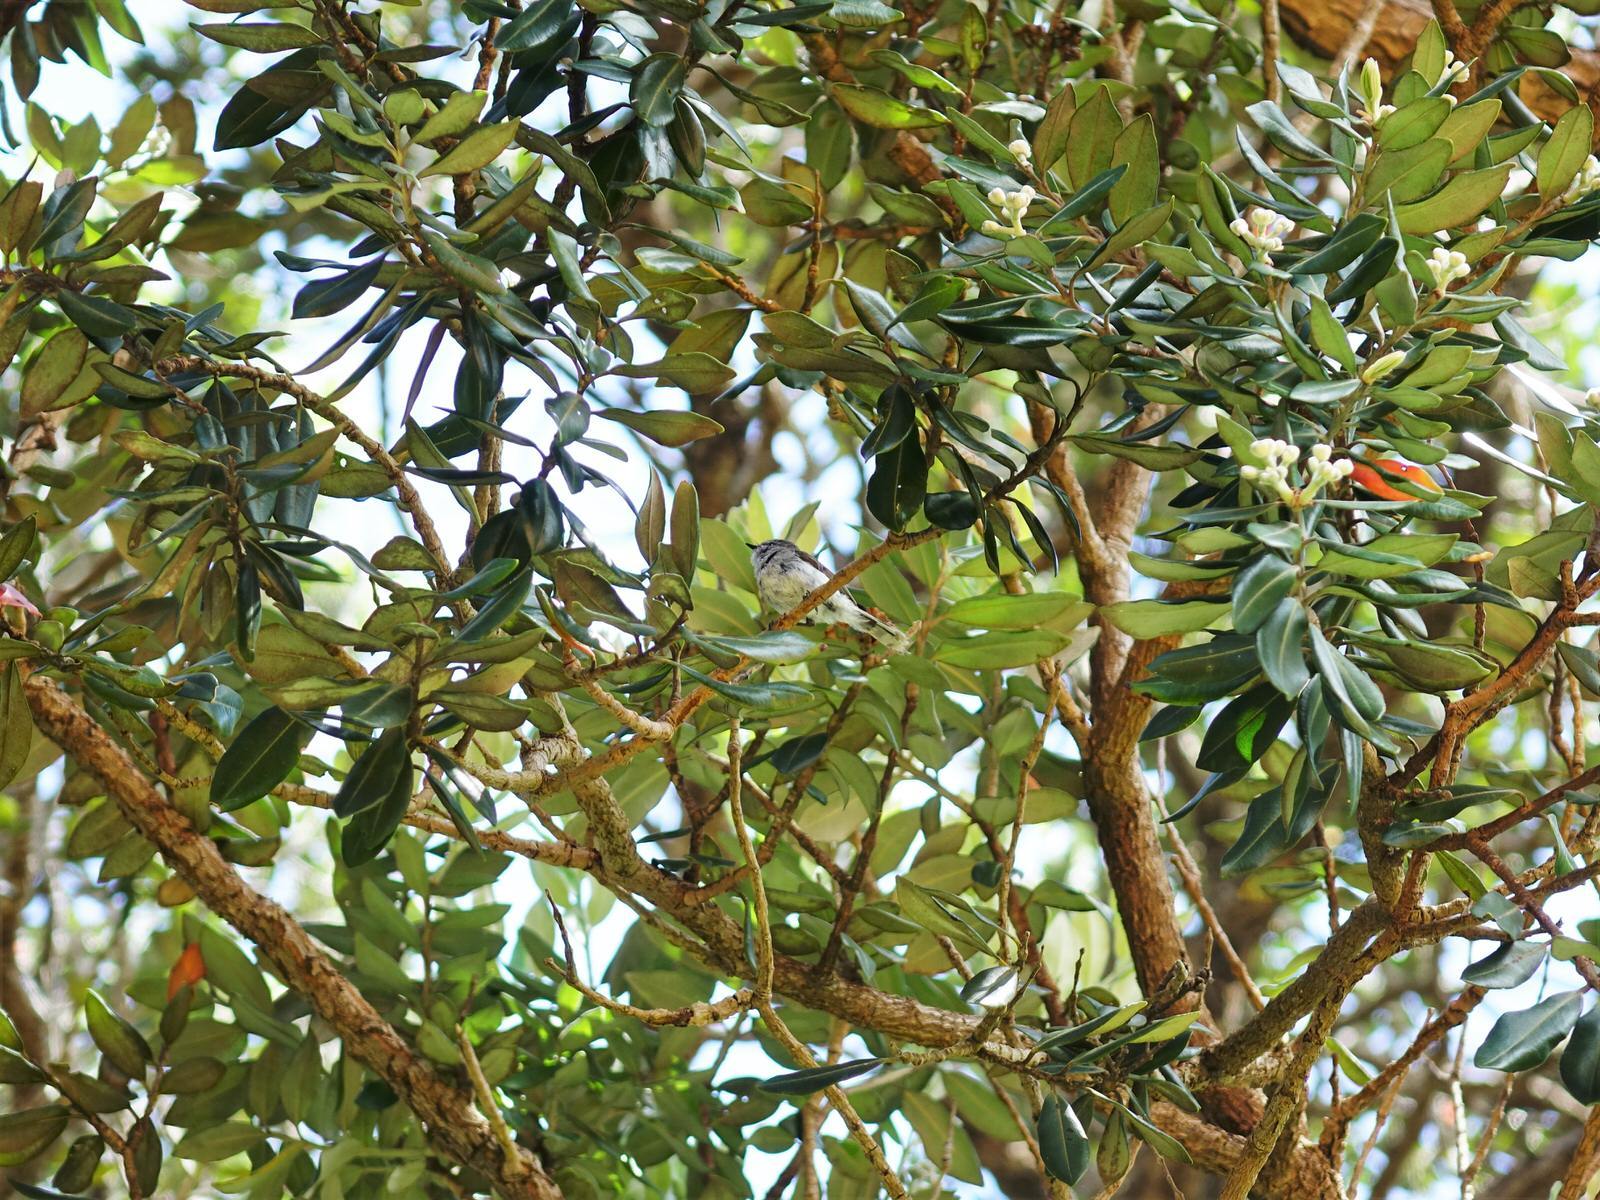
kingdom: Animalia
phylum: Chordata
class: Aves
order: Passeriformes
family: Acanthizidae
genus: Gerygone
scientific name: Gerygone igata
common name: Grey gerygone
